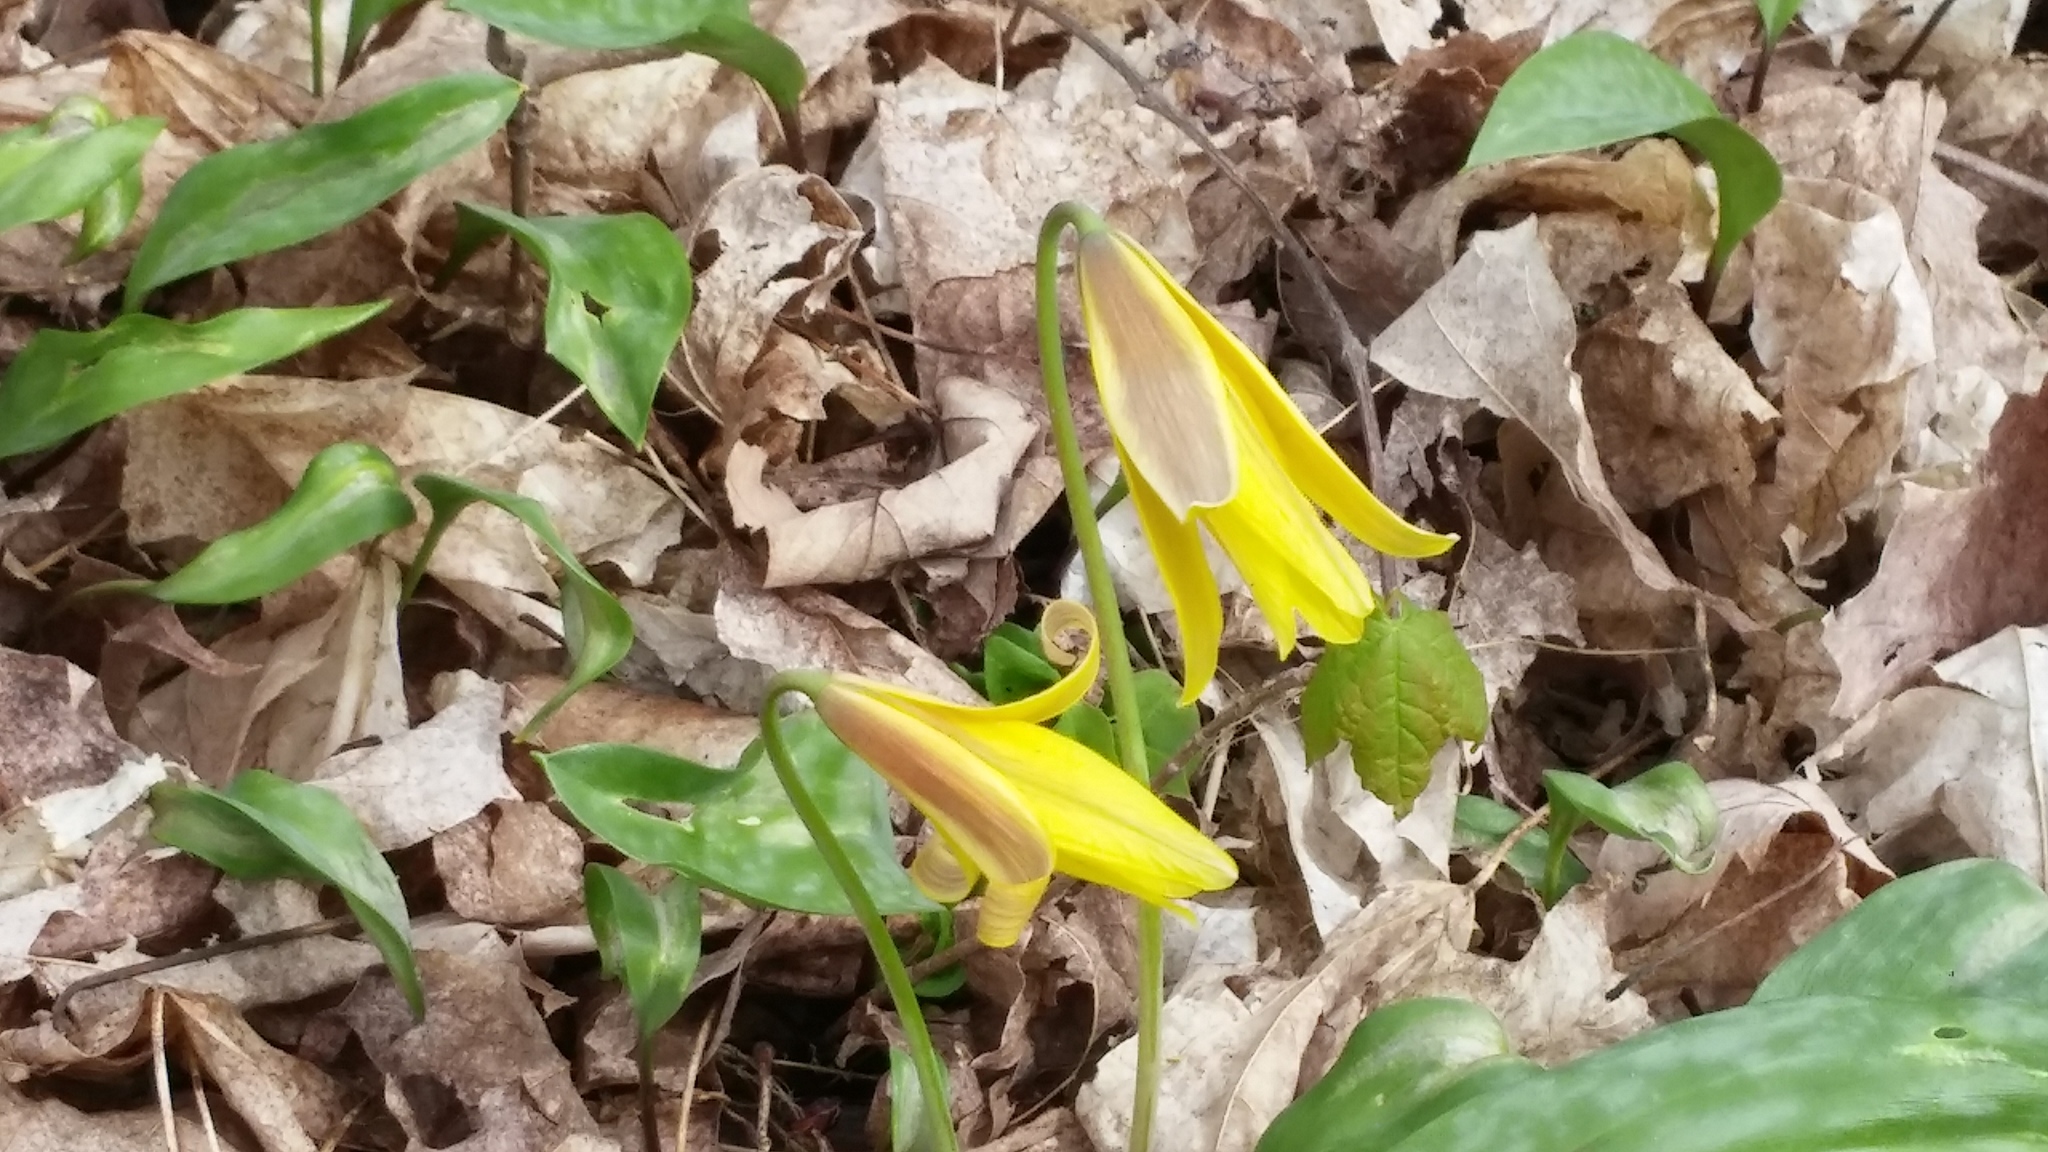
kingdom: Plantae
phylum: Tracheophyta
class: Liliopsida
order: Liliales
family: Liliaceae
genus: Erythronium
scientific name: Erythronium americanum
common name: Yellow adder's-tongue
